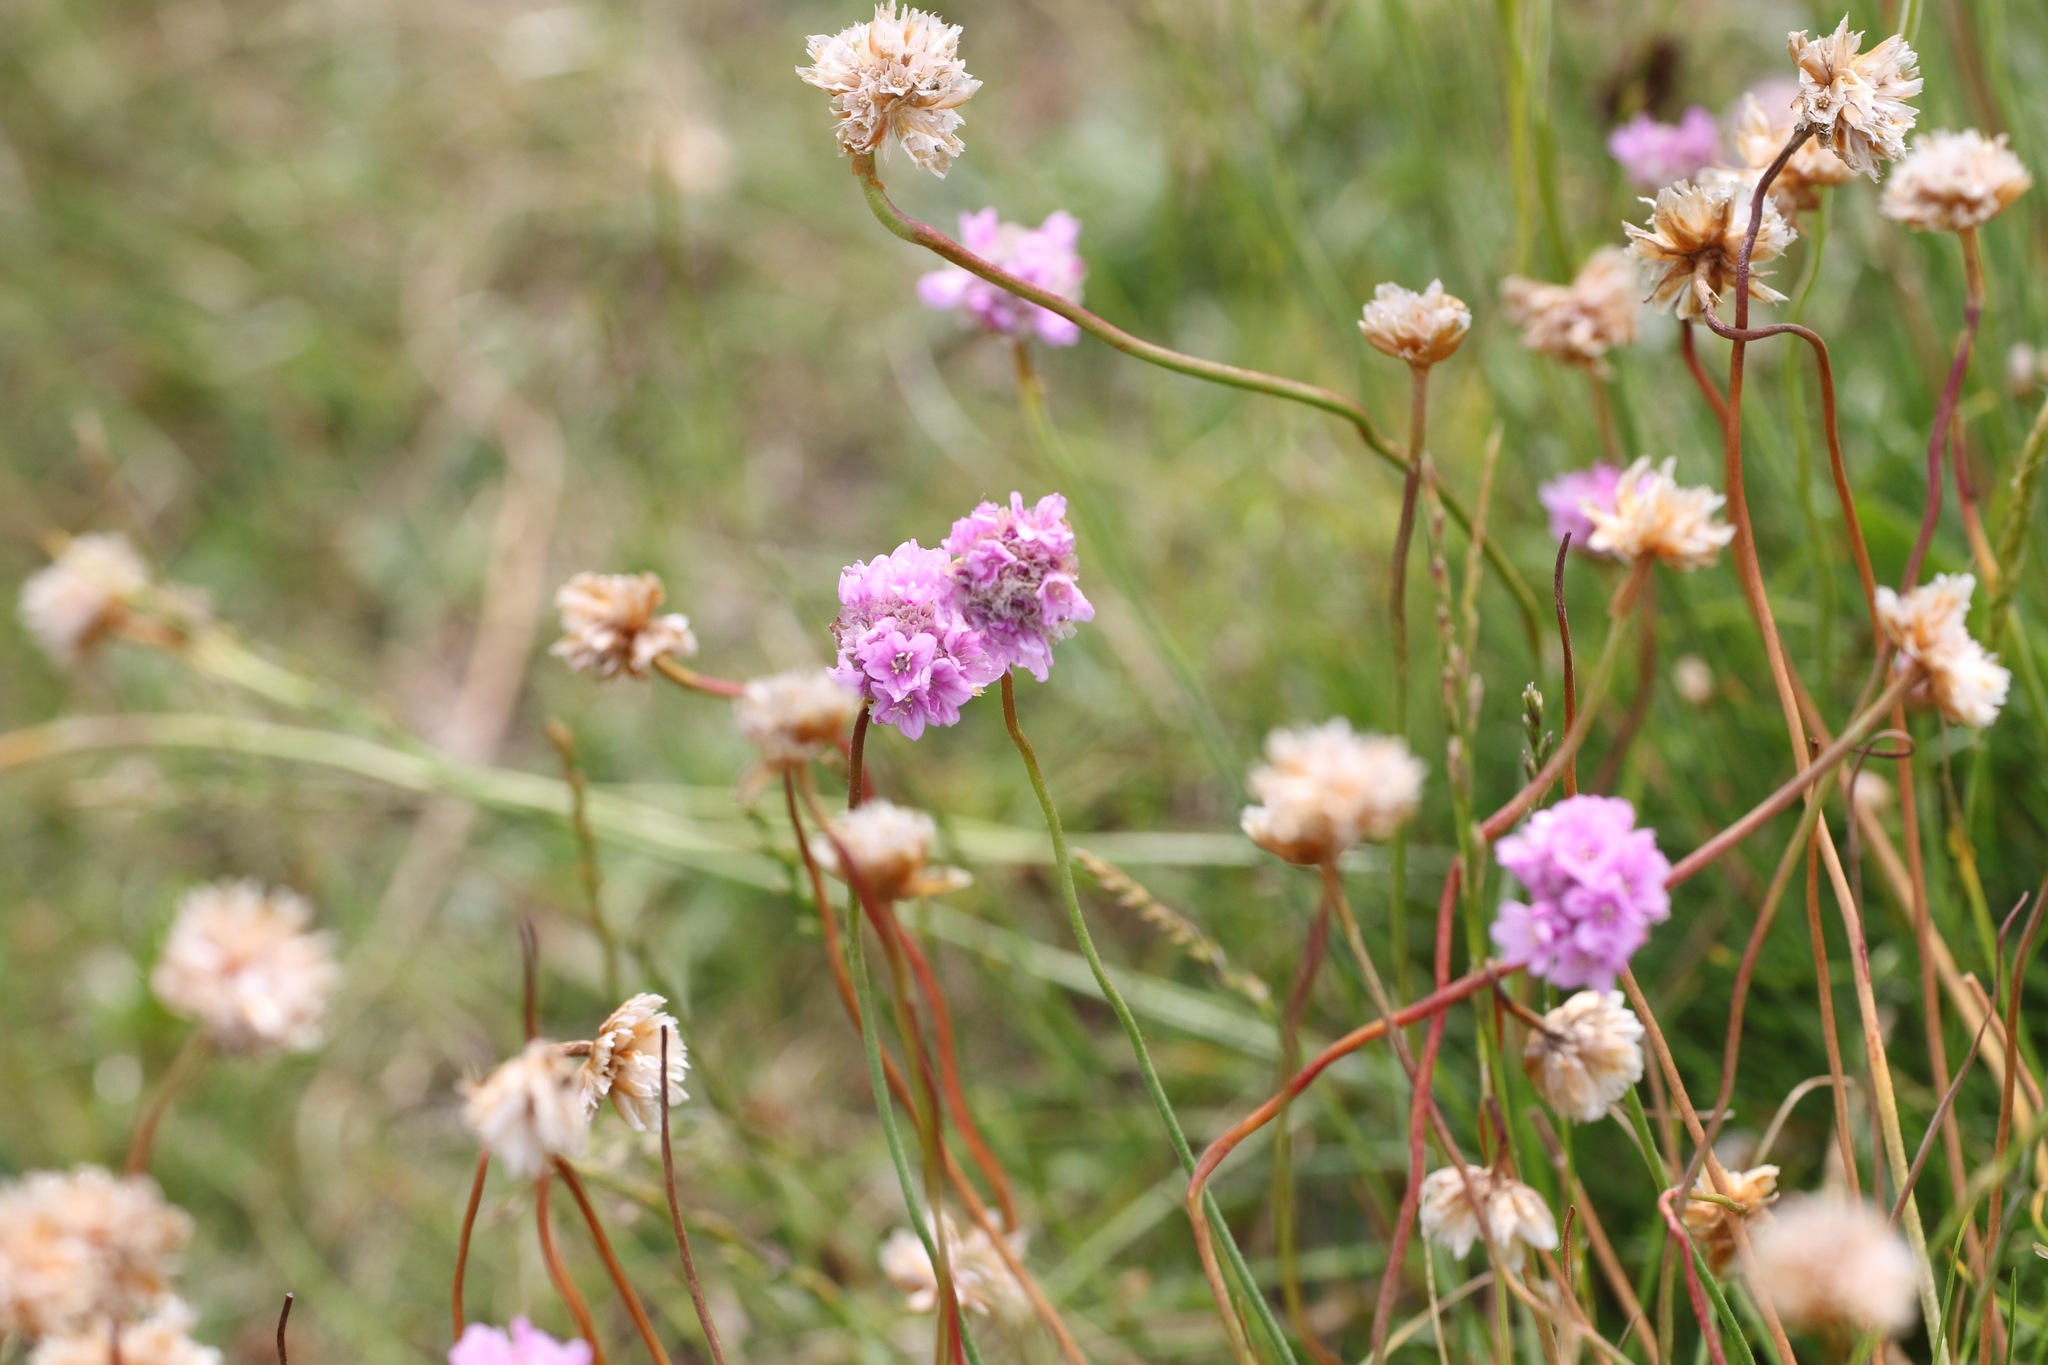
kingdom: Plantae
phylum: Tracheophyta
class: Magnoliopsida
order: Caryophyllales
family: Plumbaginaceae
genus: Armeria
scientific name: Armeria maritima
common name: Thrift
